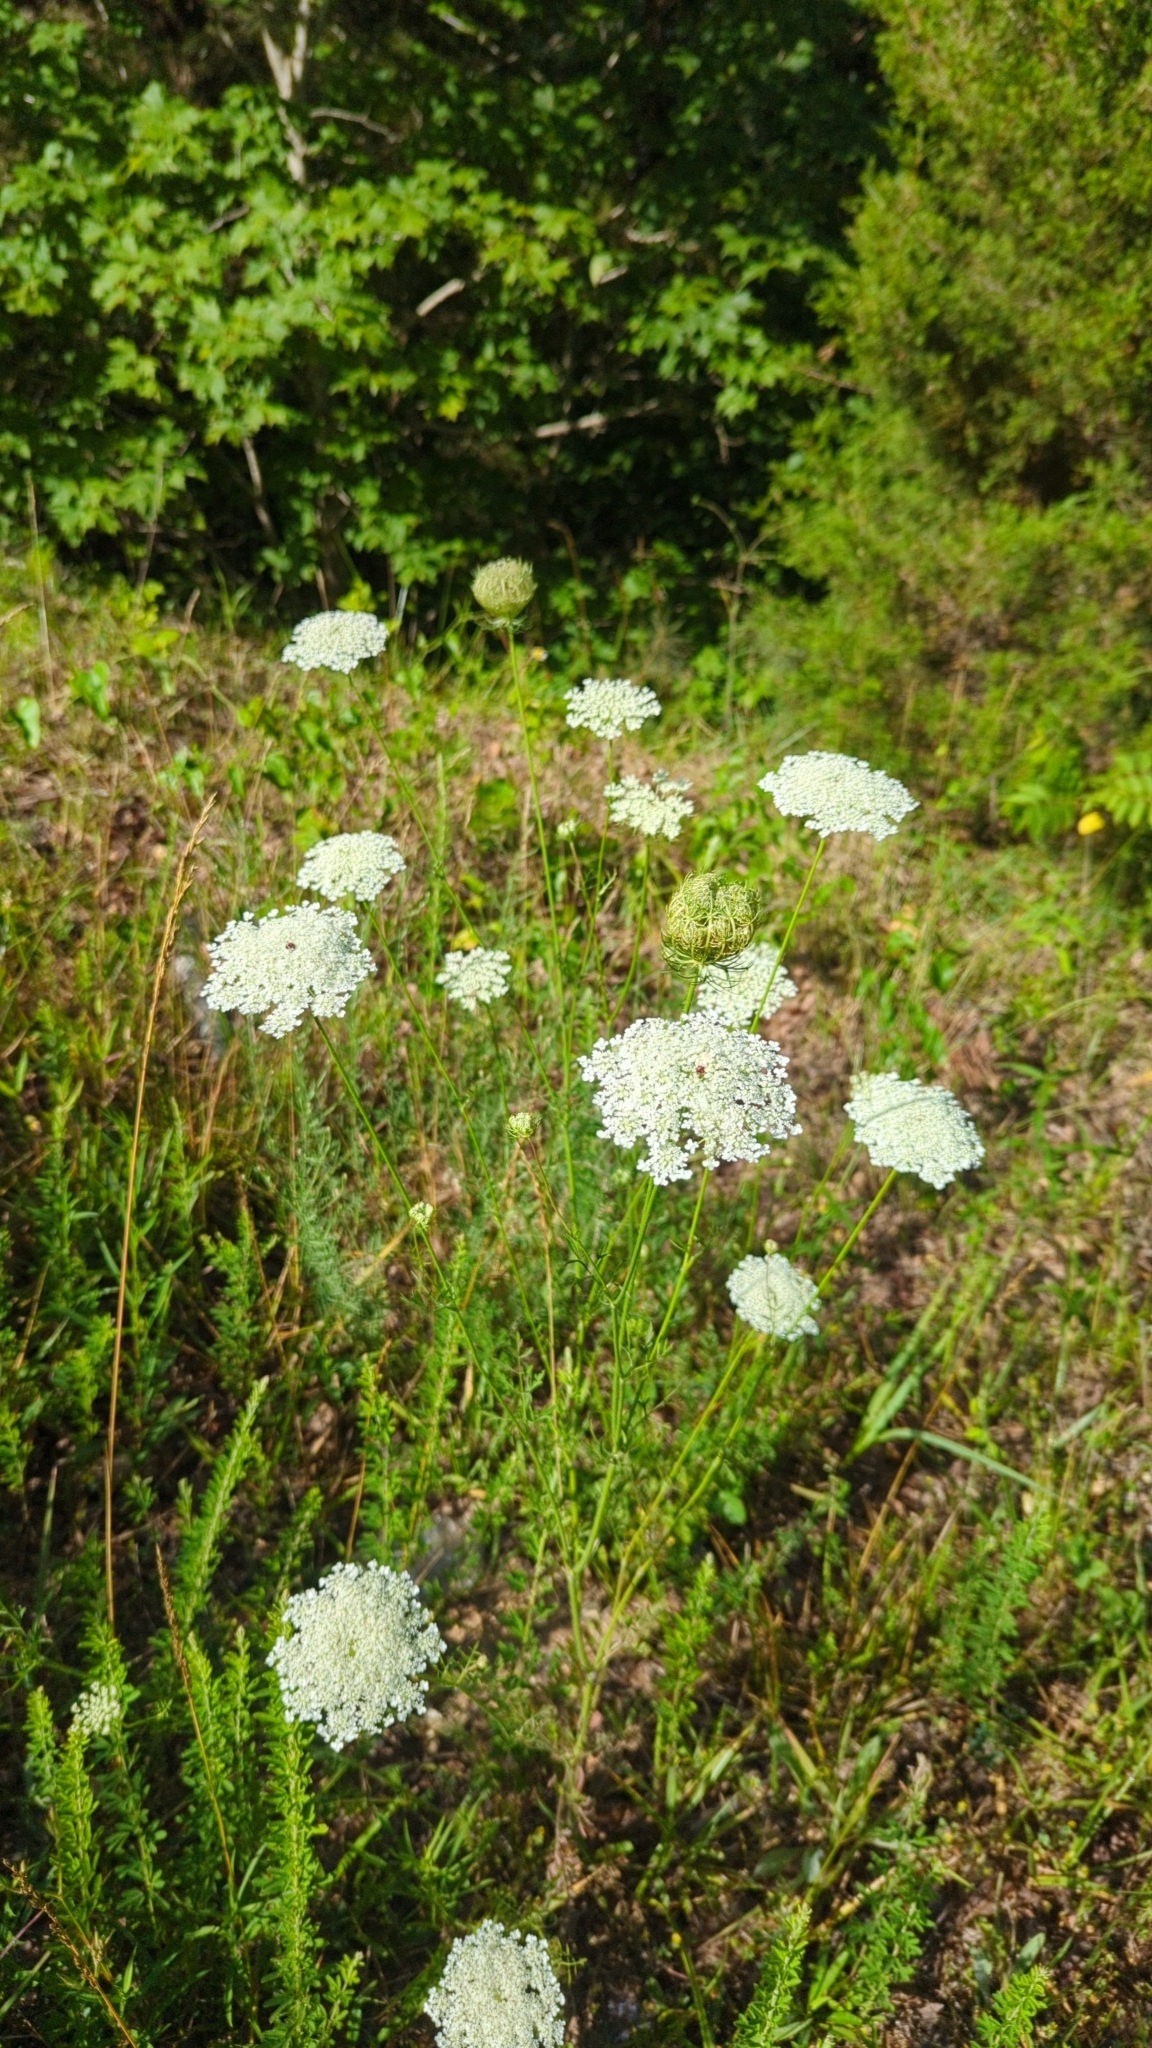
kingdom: Plantae
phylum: Tracheophyta
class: Magnoliopsida
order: Apiales
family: Apiaceae
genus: Daucus
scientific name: Daucus carota
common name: Wild carrot
